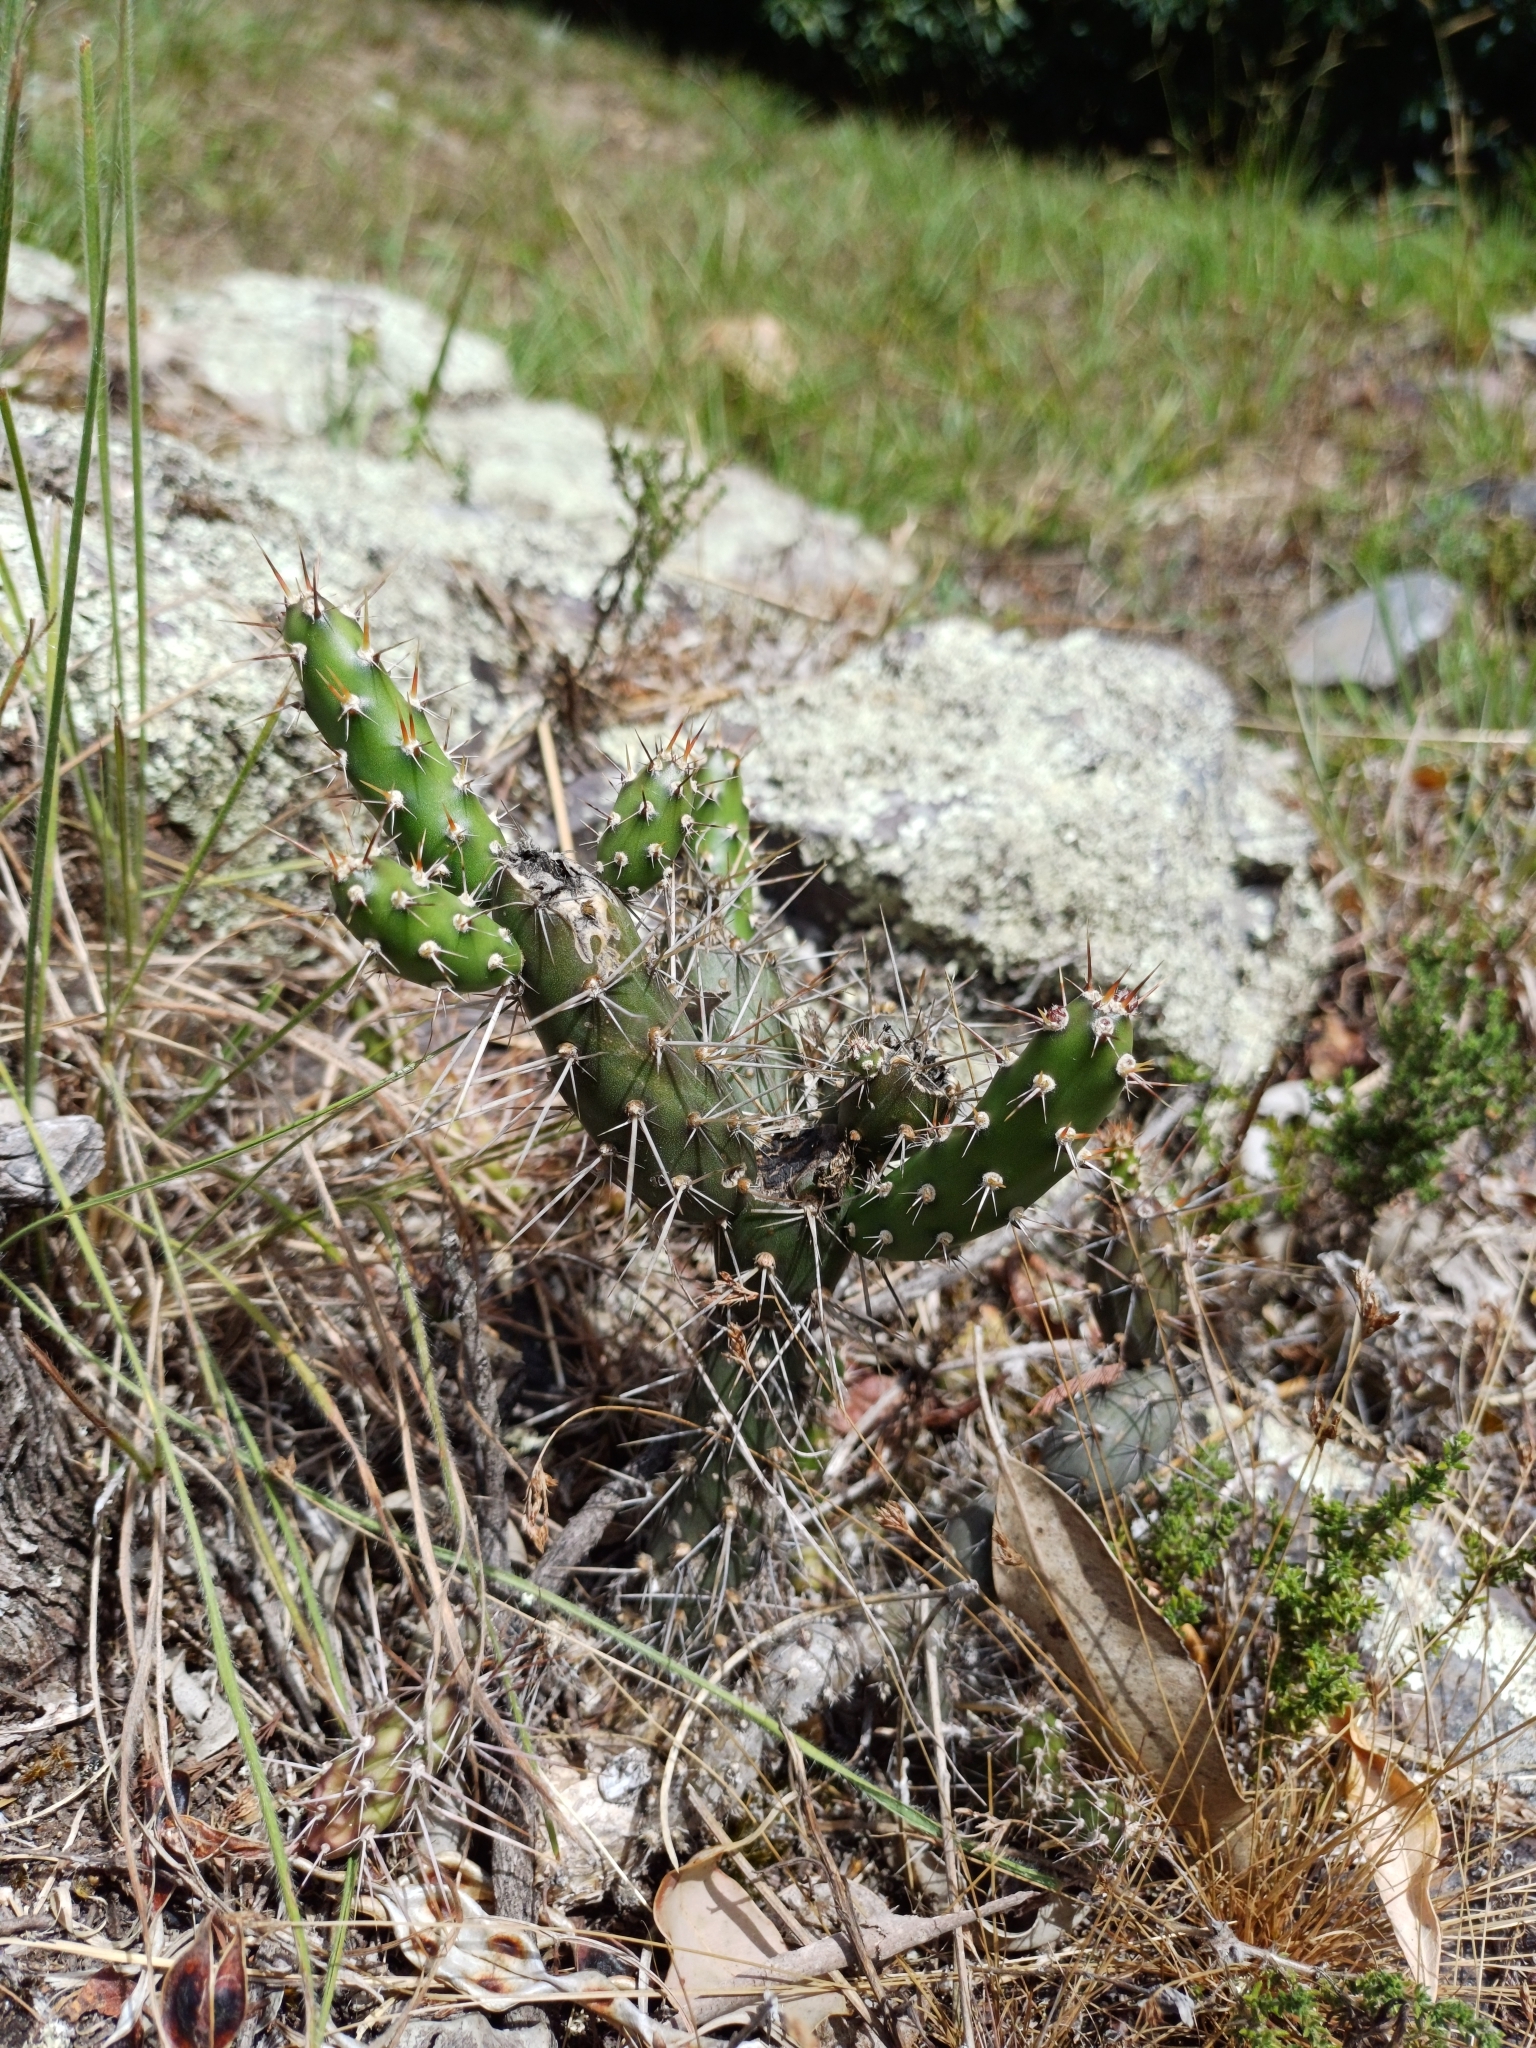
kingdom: Plantae
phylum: Tracheophyta
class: Magnoliopsida
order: Caryophyllales
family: Cactaceae
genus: Opuntia
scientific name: Opuntia aurantiaca
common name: Jointed pricklypear
